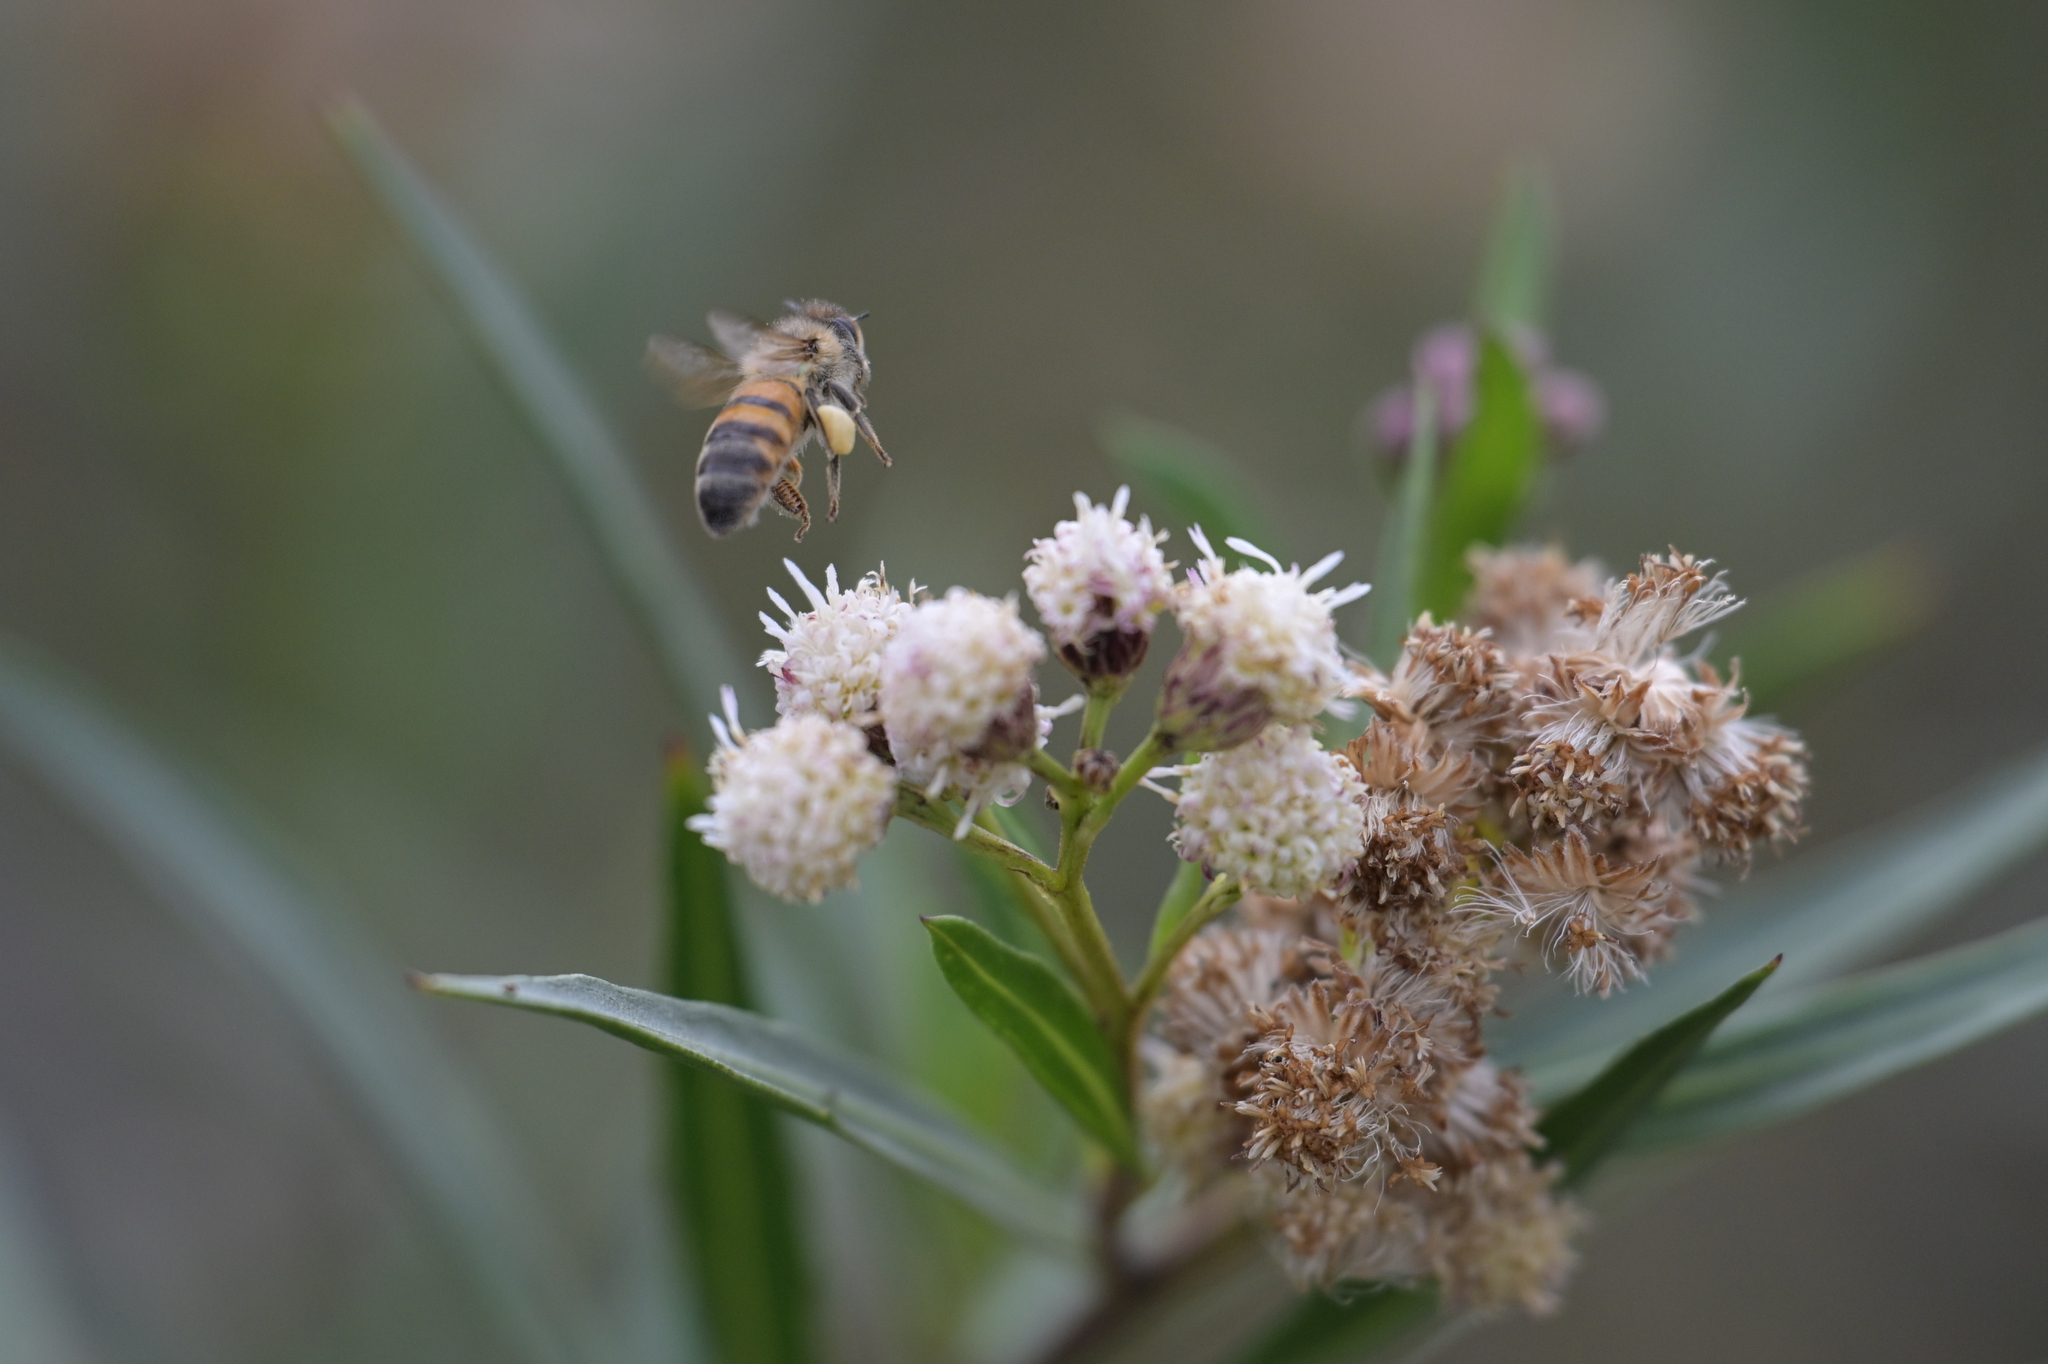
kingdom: Animalia
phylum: Arthropoda
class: Insecta
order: Hymenoptera
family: Apidae
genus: Apis
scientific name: Apis mellifera
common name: Honey bee
